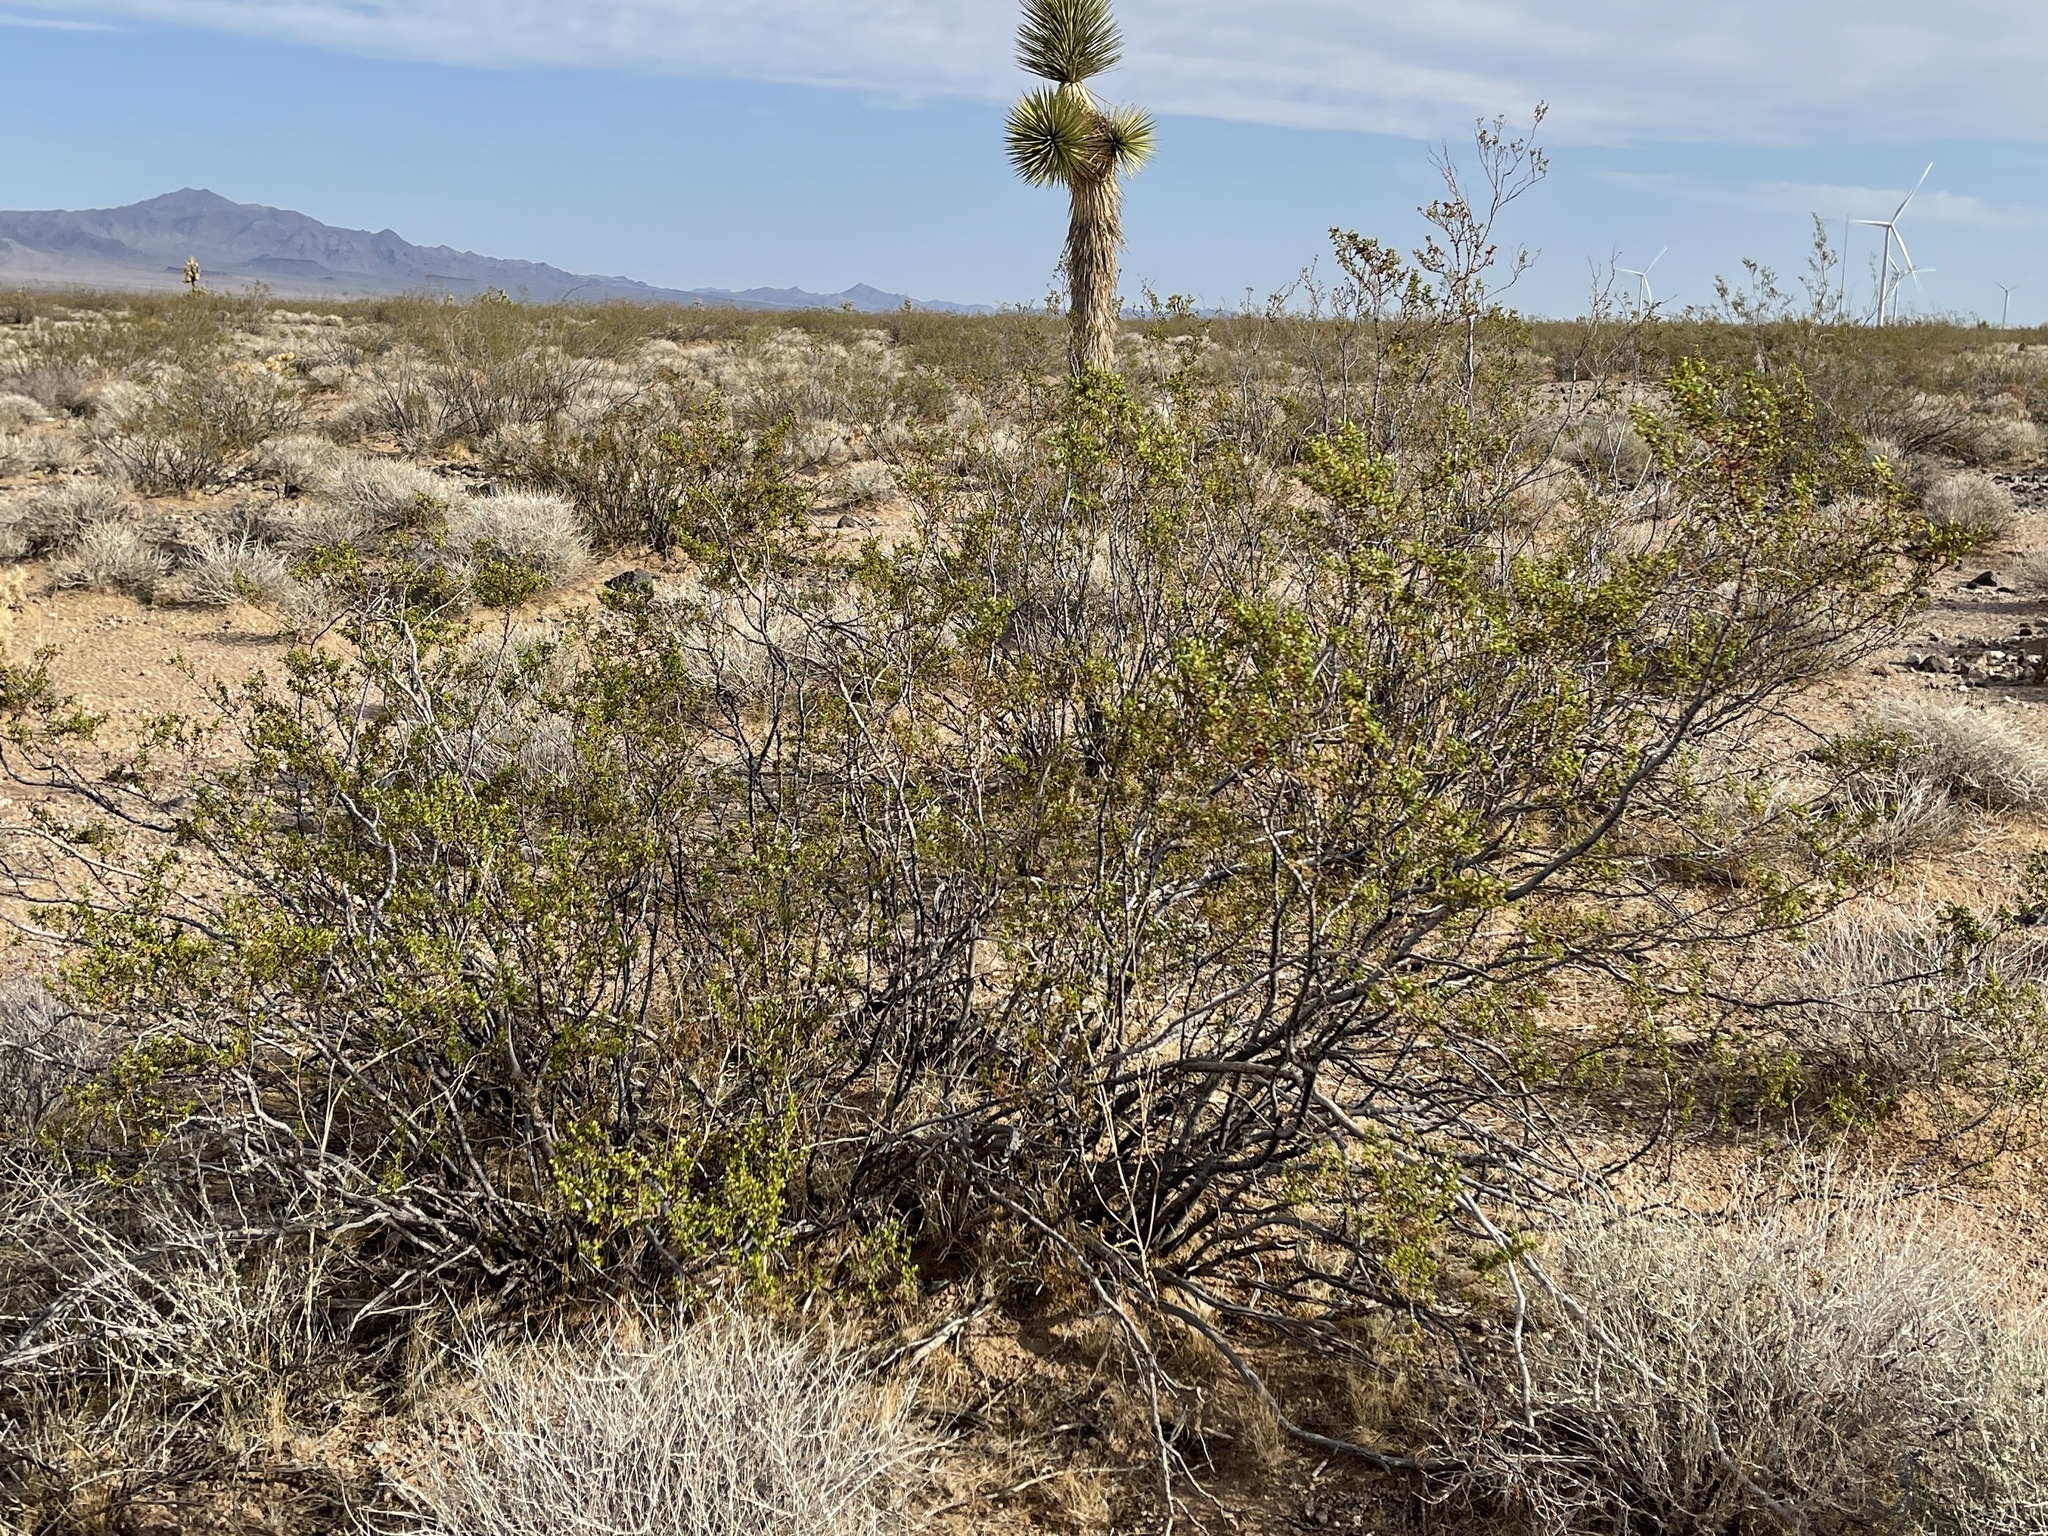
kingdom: Plantae
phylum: Tracheophyta
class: Magnoliopsida
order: Zygophyllales
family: Zygophyllaceae
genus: Larrea
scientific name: Larrea tridentata
